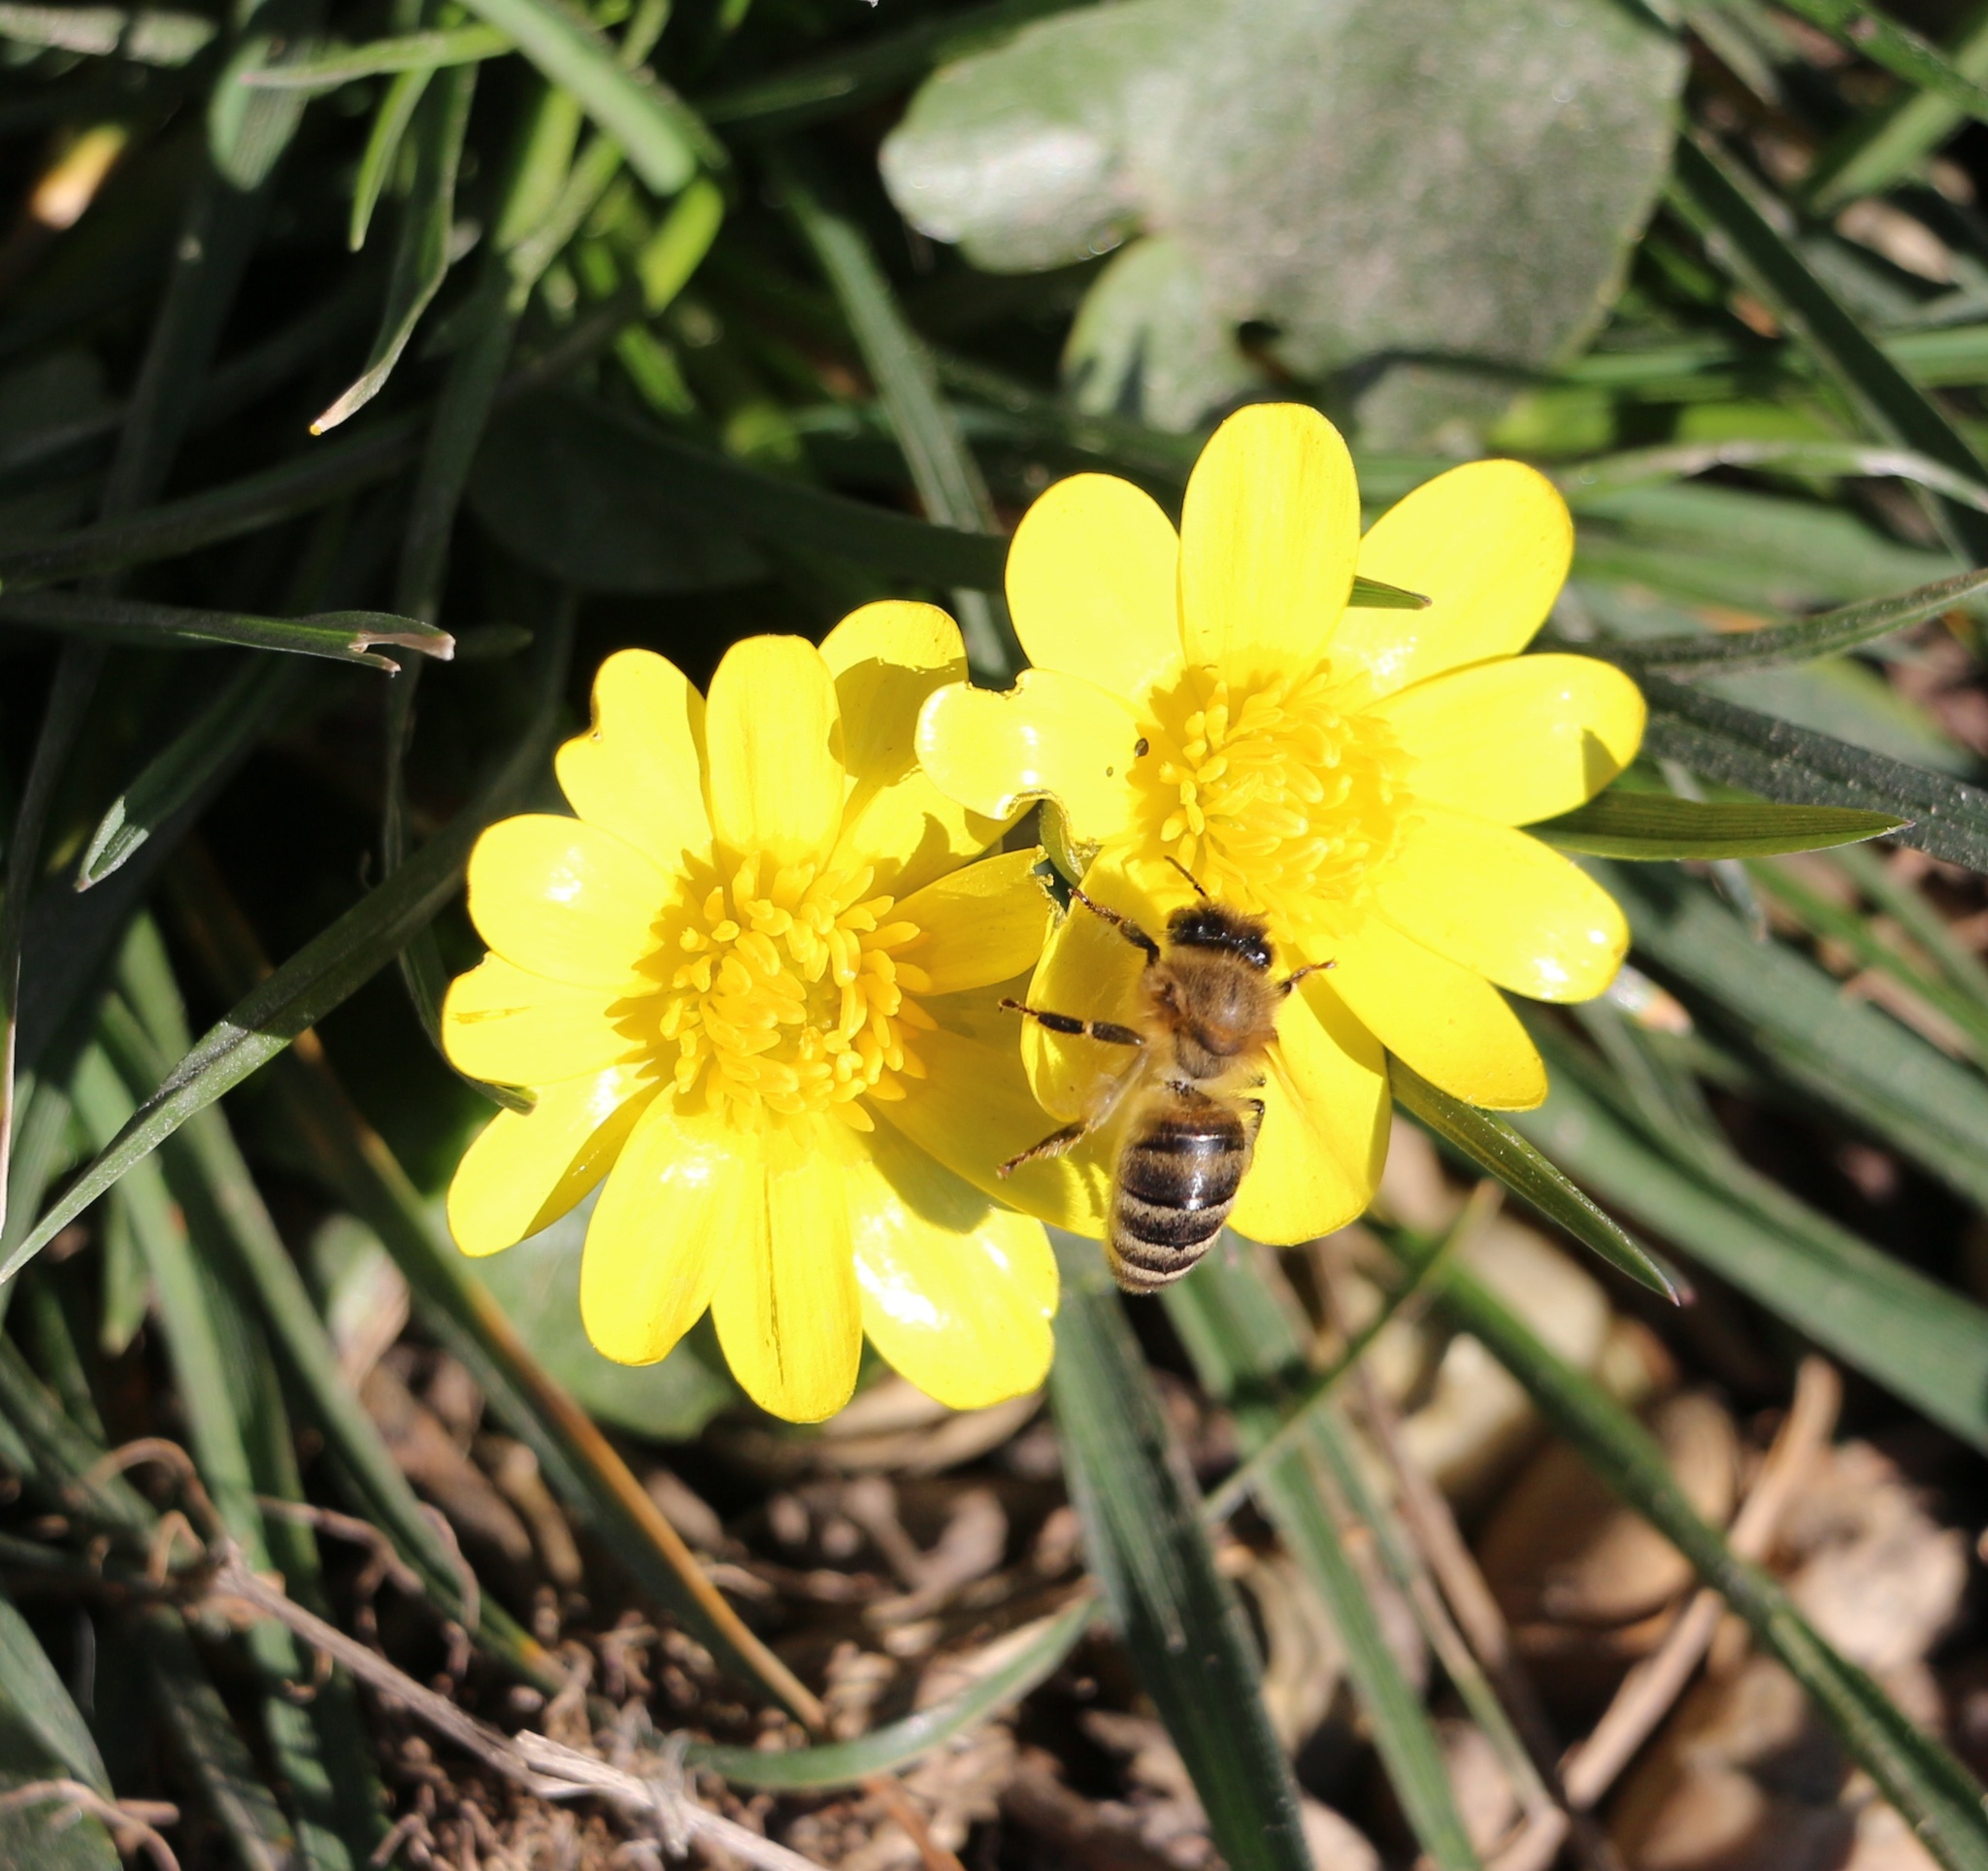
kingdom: Animalia
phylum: Arthropoda
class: Insecta
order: Hymenoptera
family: Apidae
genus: Apis
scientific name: Apis mellifera
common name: Honey bee
